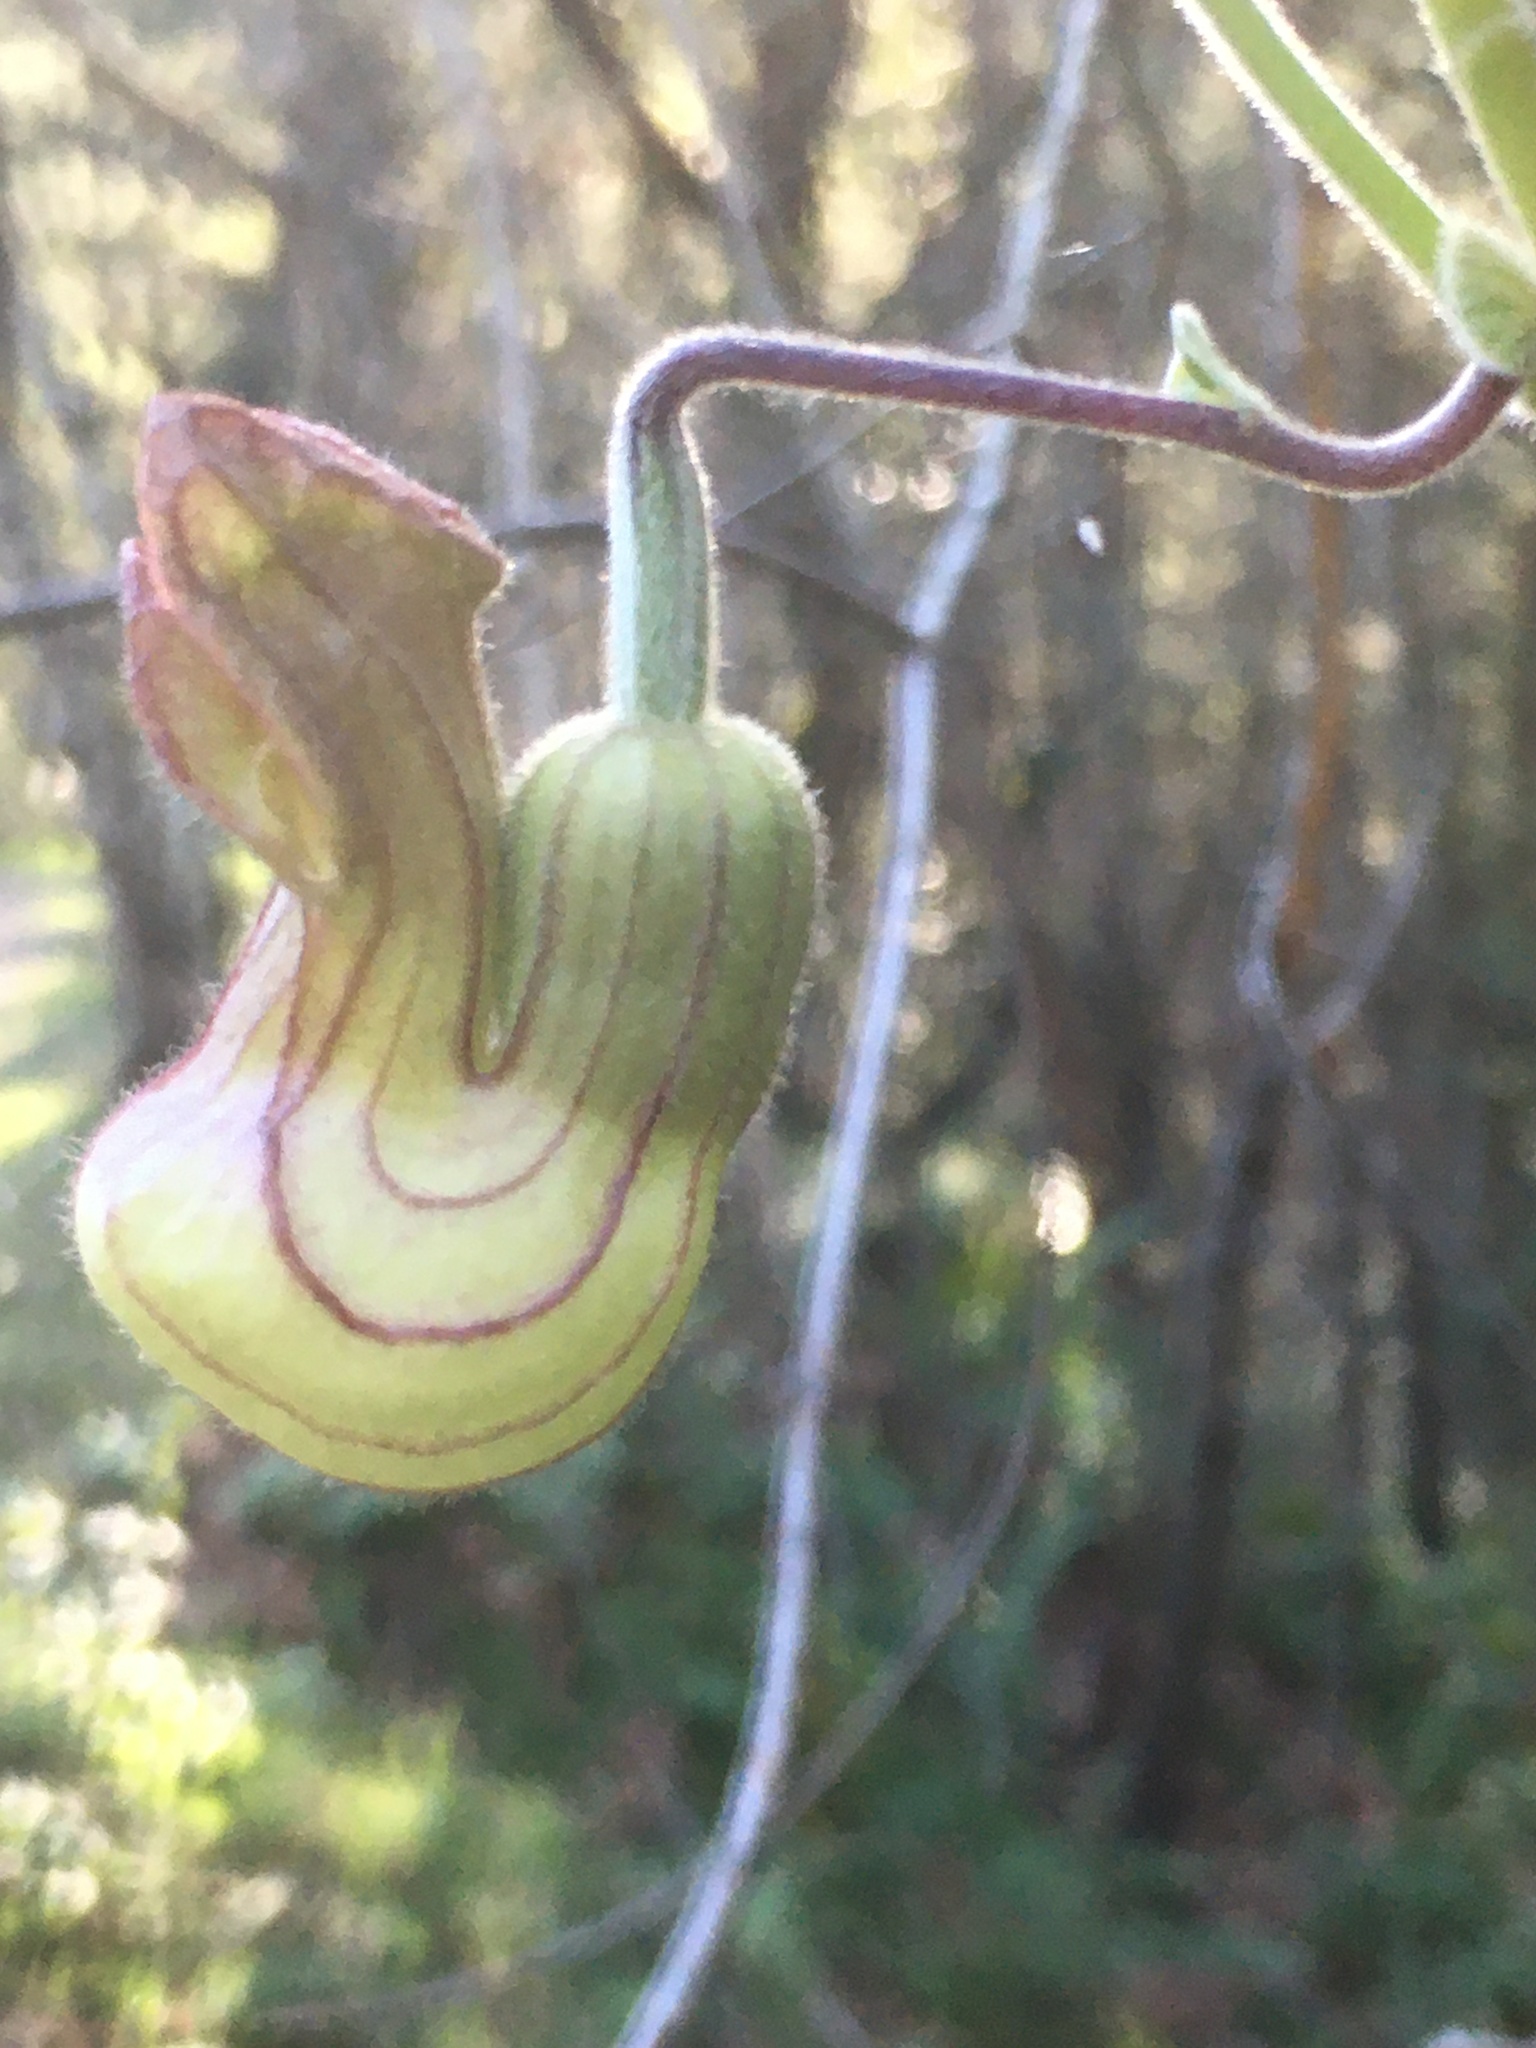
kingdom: Plantae
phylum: Tracheophyta
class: Magnoliopsida
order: Piperales
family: Aristolochiaceae
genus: Isotrema
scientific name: Isotrema californicum
